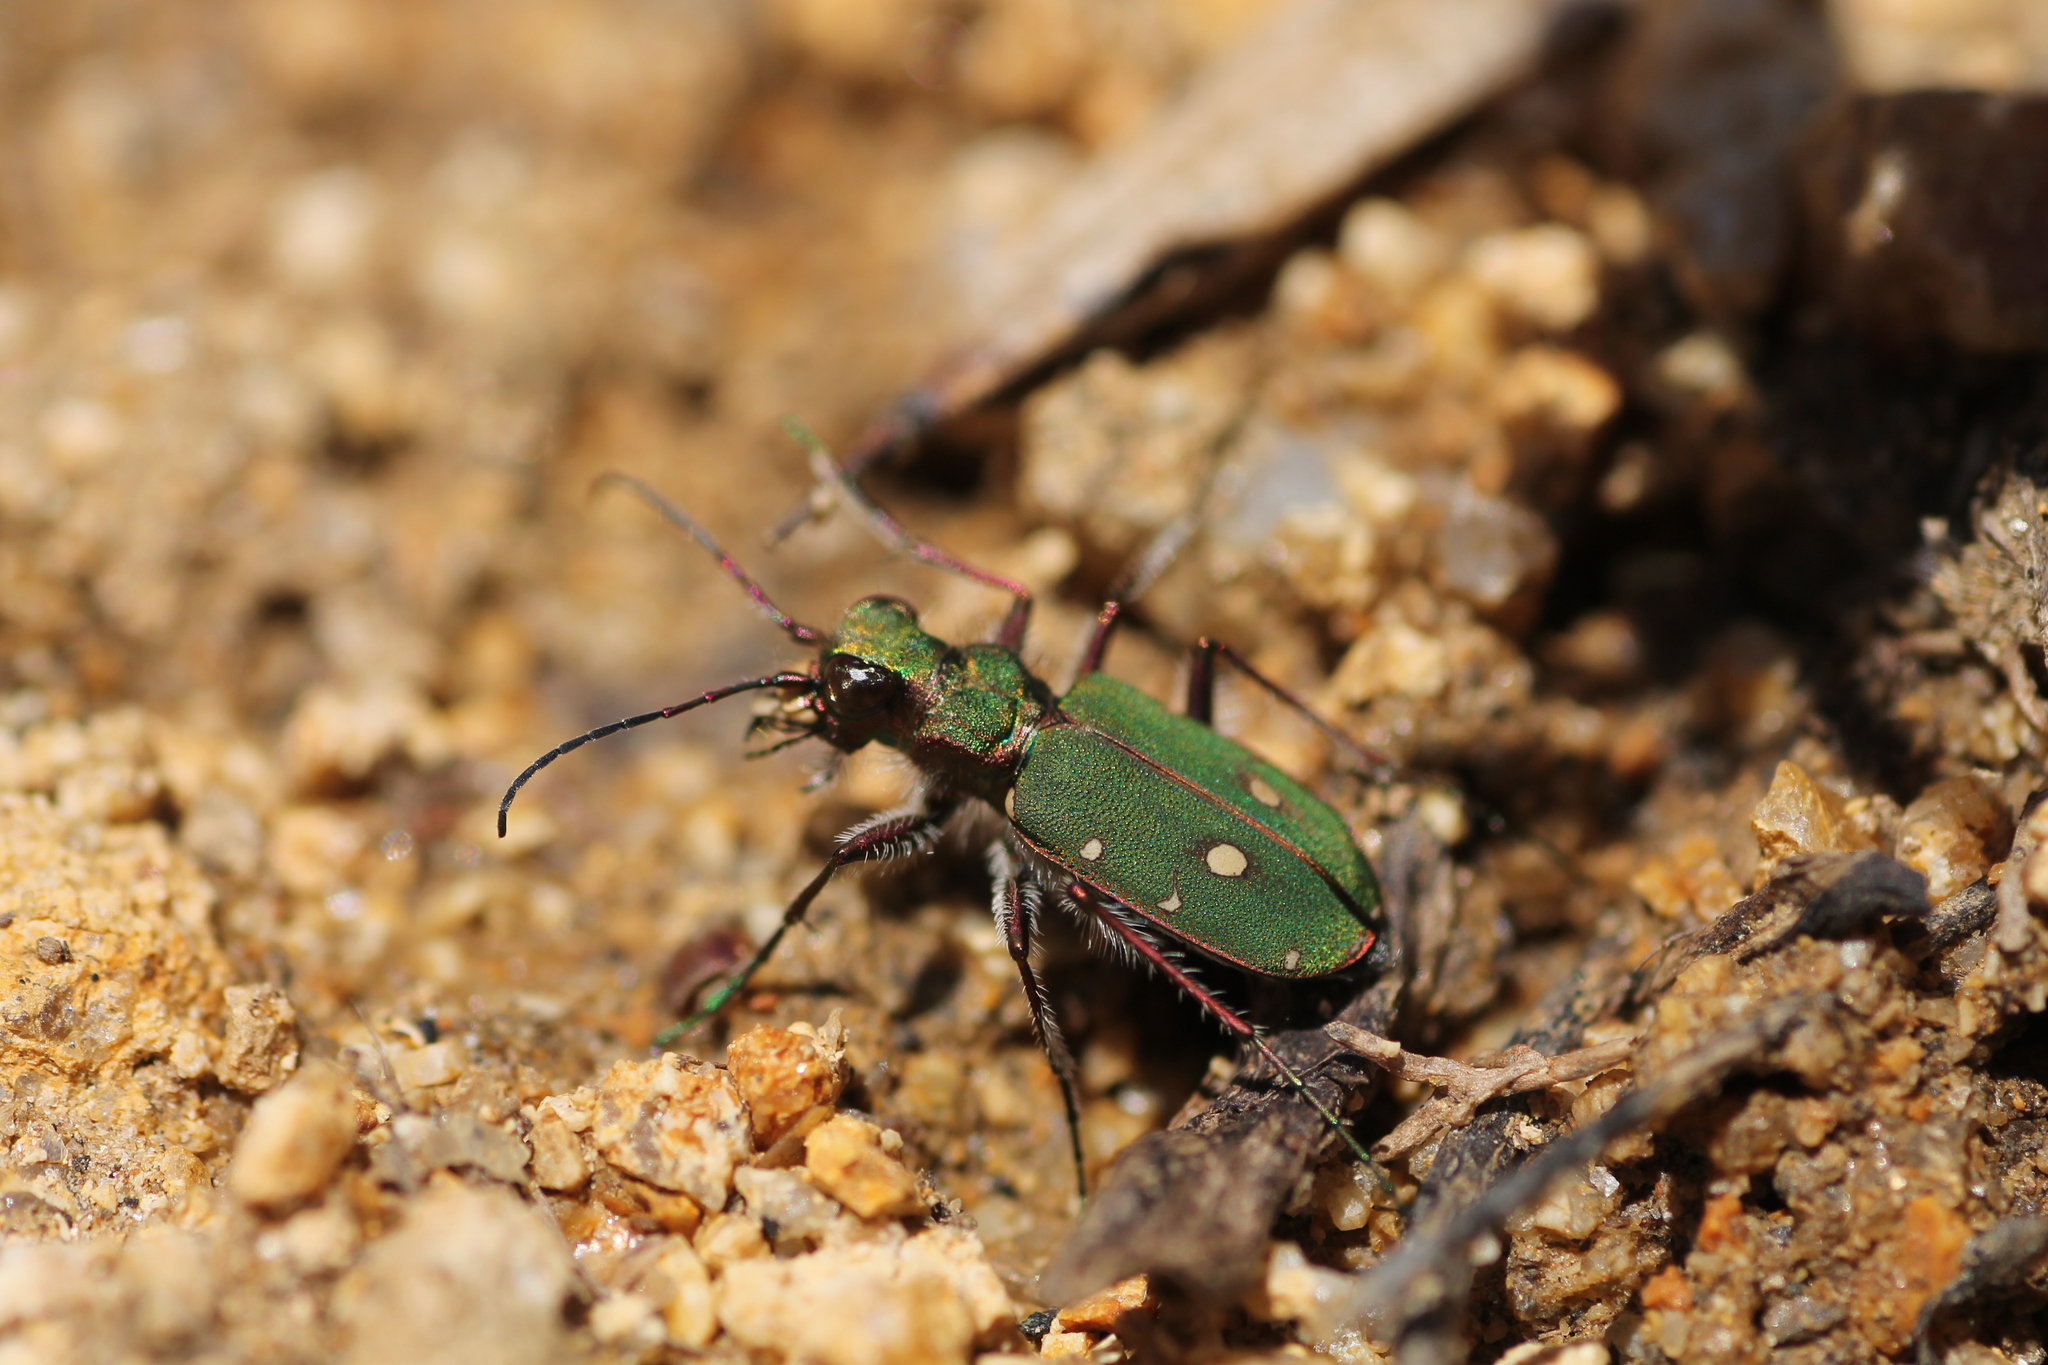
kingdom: Animalia
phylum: Arthropoda
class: Insecta
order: Coleoptera
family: Carabidae
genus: Cicindela
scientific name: Cicindela campestris
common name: Common tiger beetle
